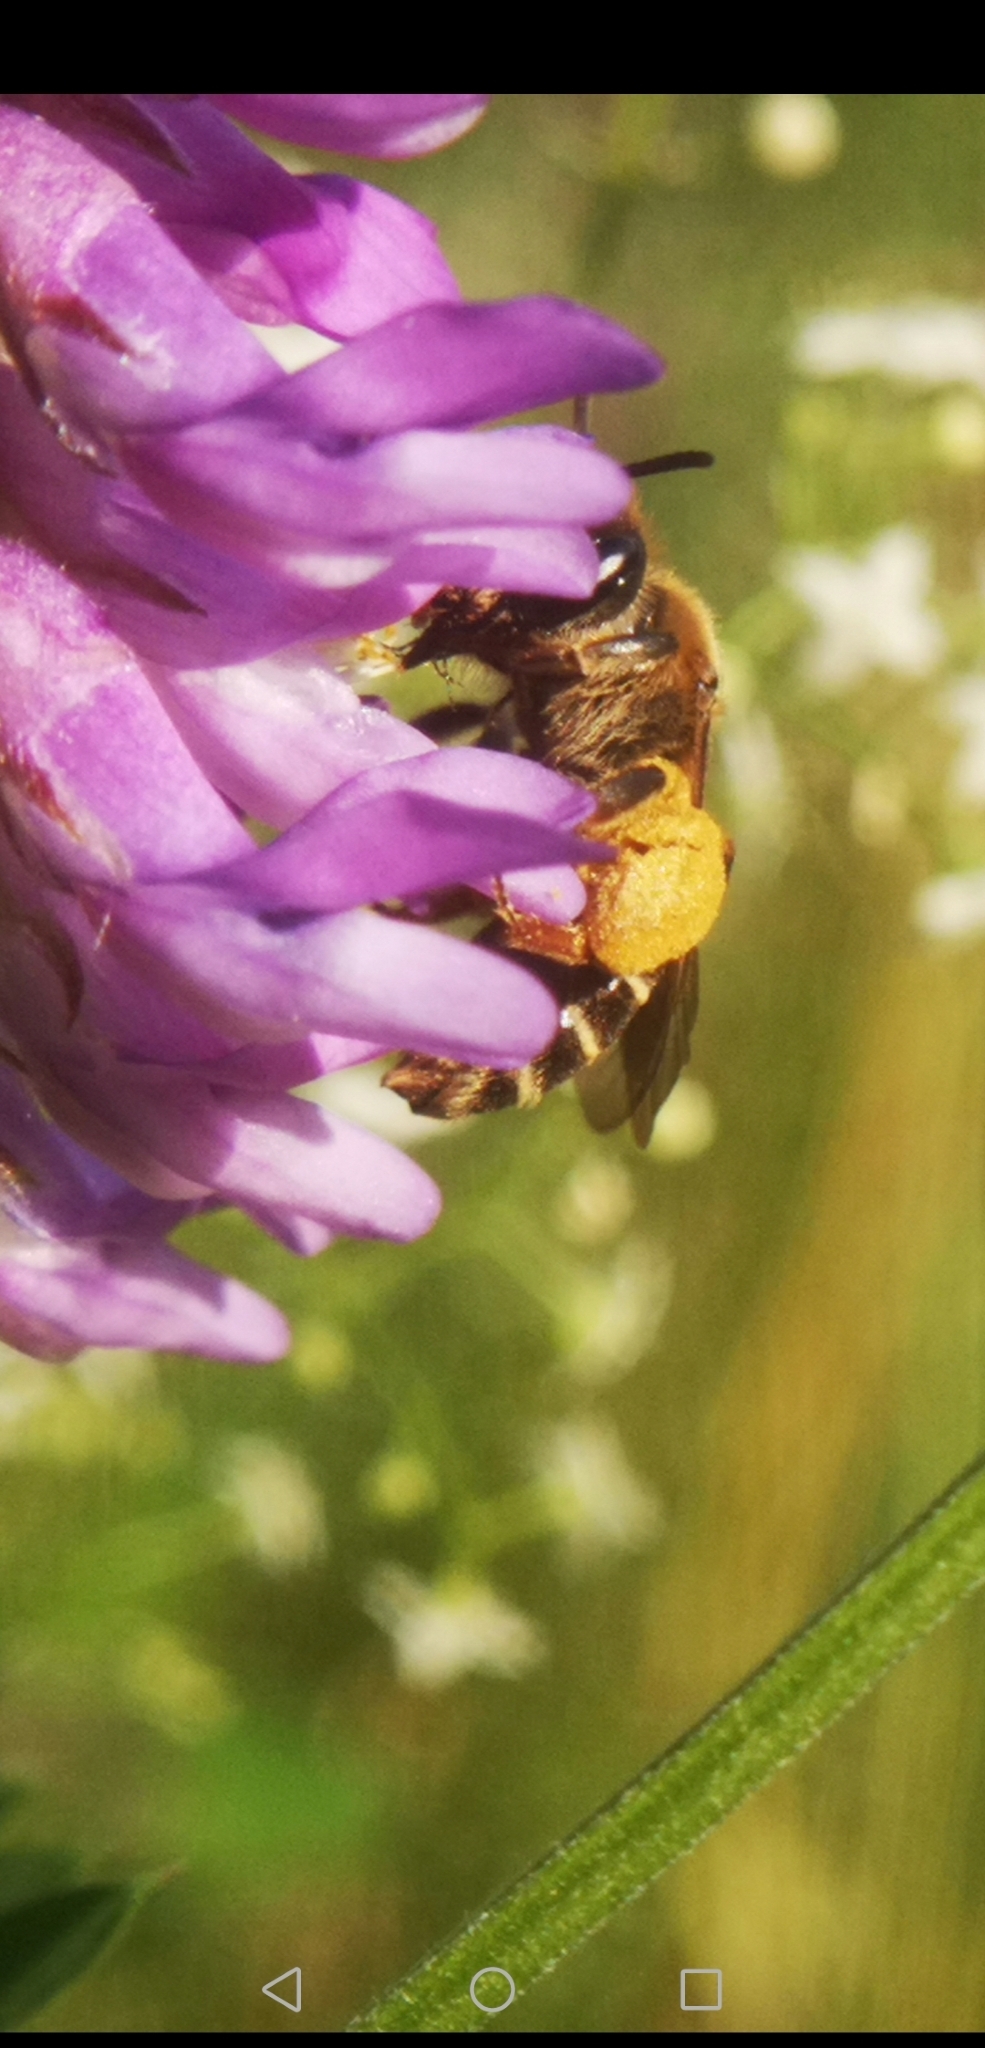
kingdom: Animalia
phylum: Arthropoda
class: Insecta
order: Hymenoptera
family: Andrenidae
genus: Andrena
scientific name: Andrena wilkella
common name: Wilke's mining bee
